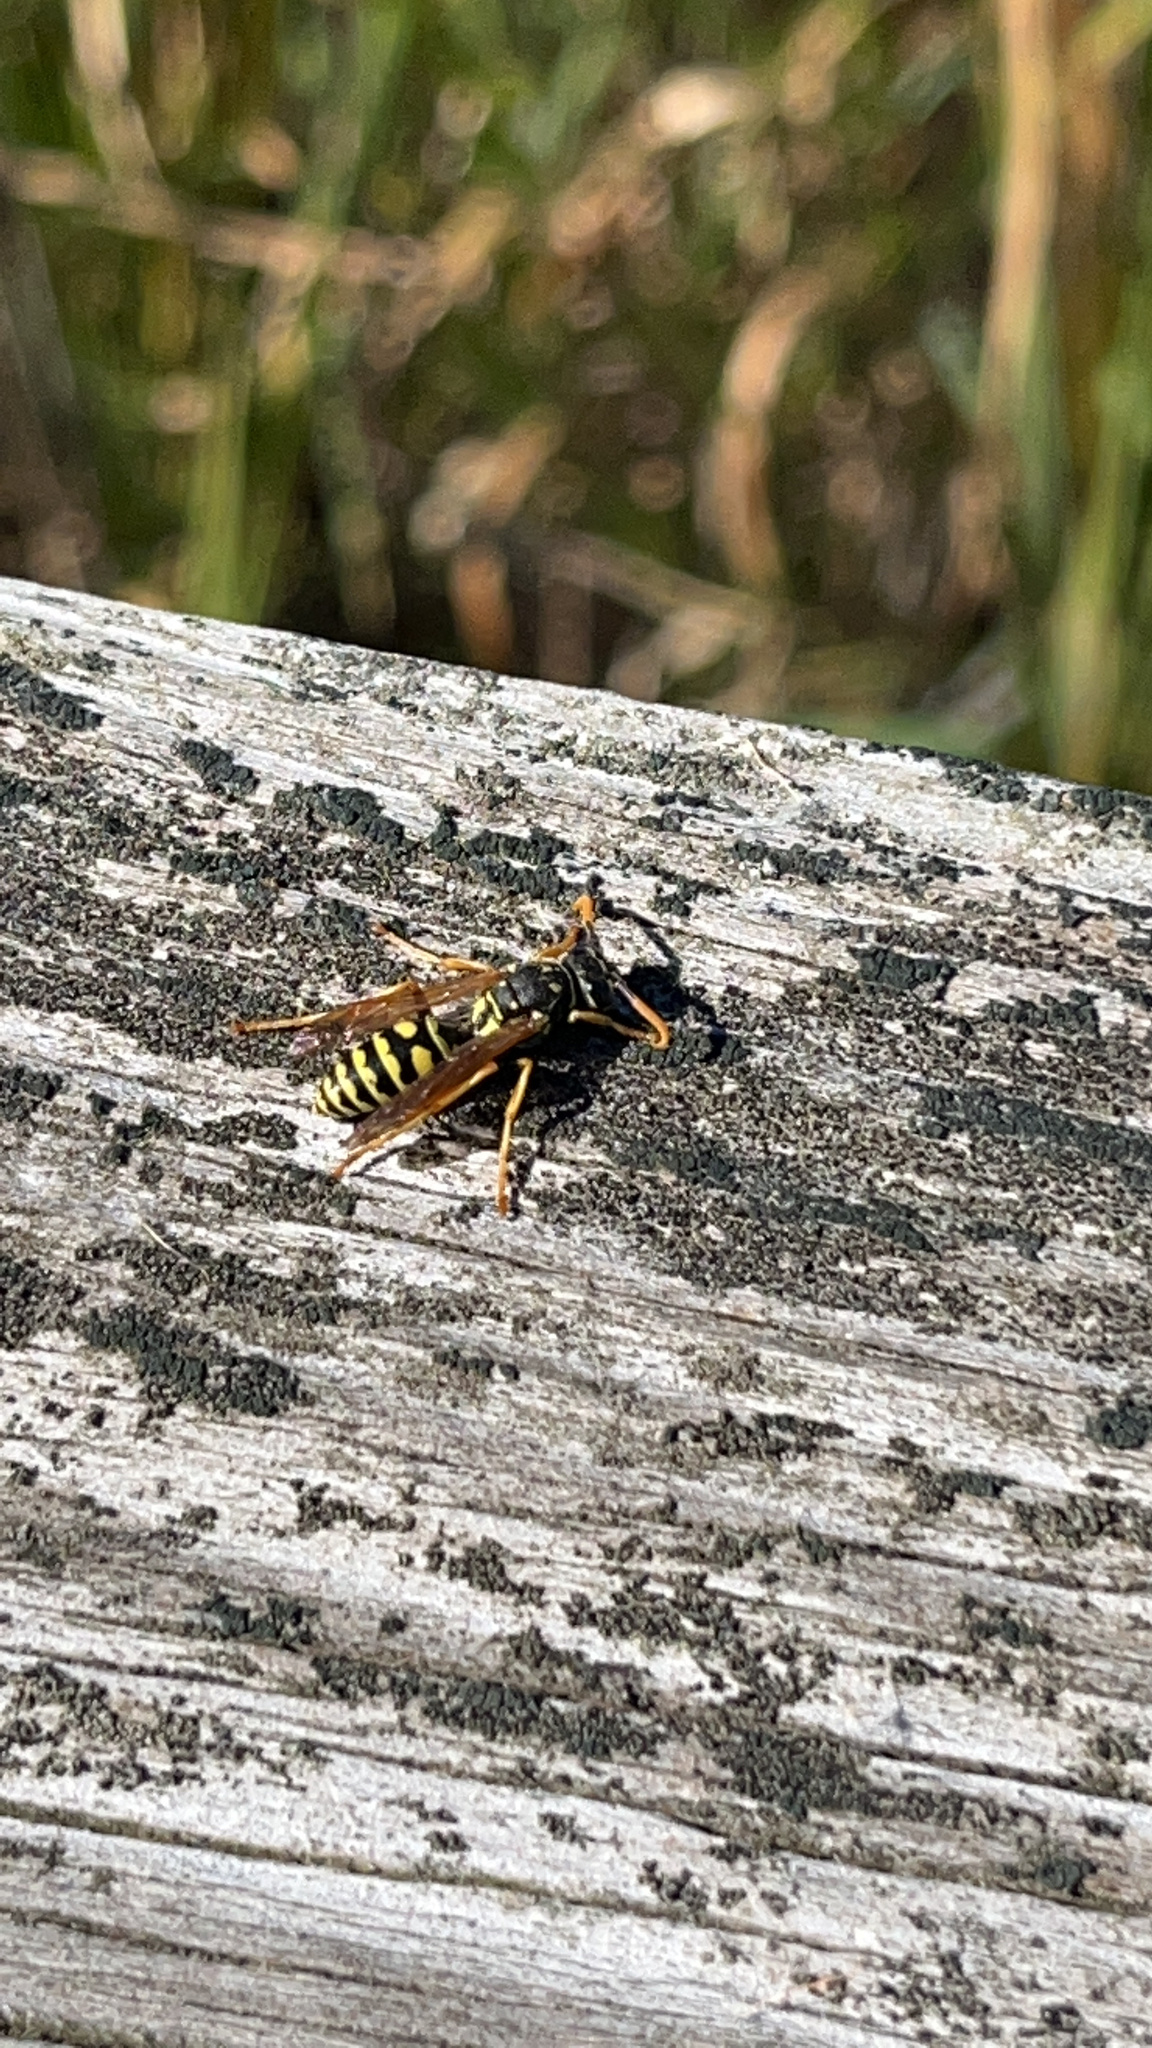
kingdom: Animalia
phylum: Arthropoda
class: Insecta
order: Hymenoptera
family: Eumenidae
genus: Polistes
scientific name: Polistes dominula
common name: Paper wasp
